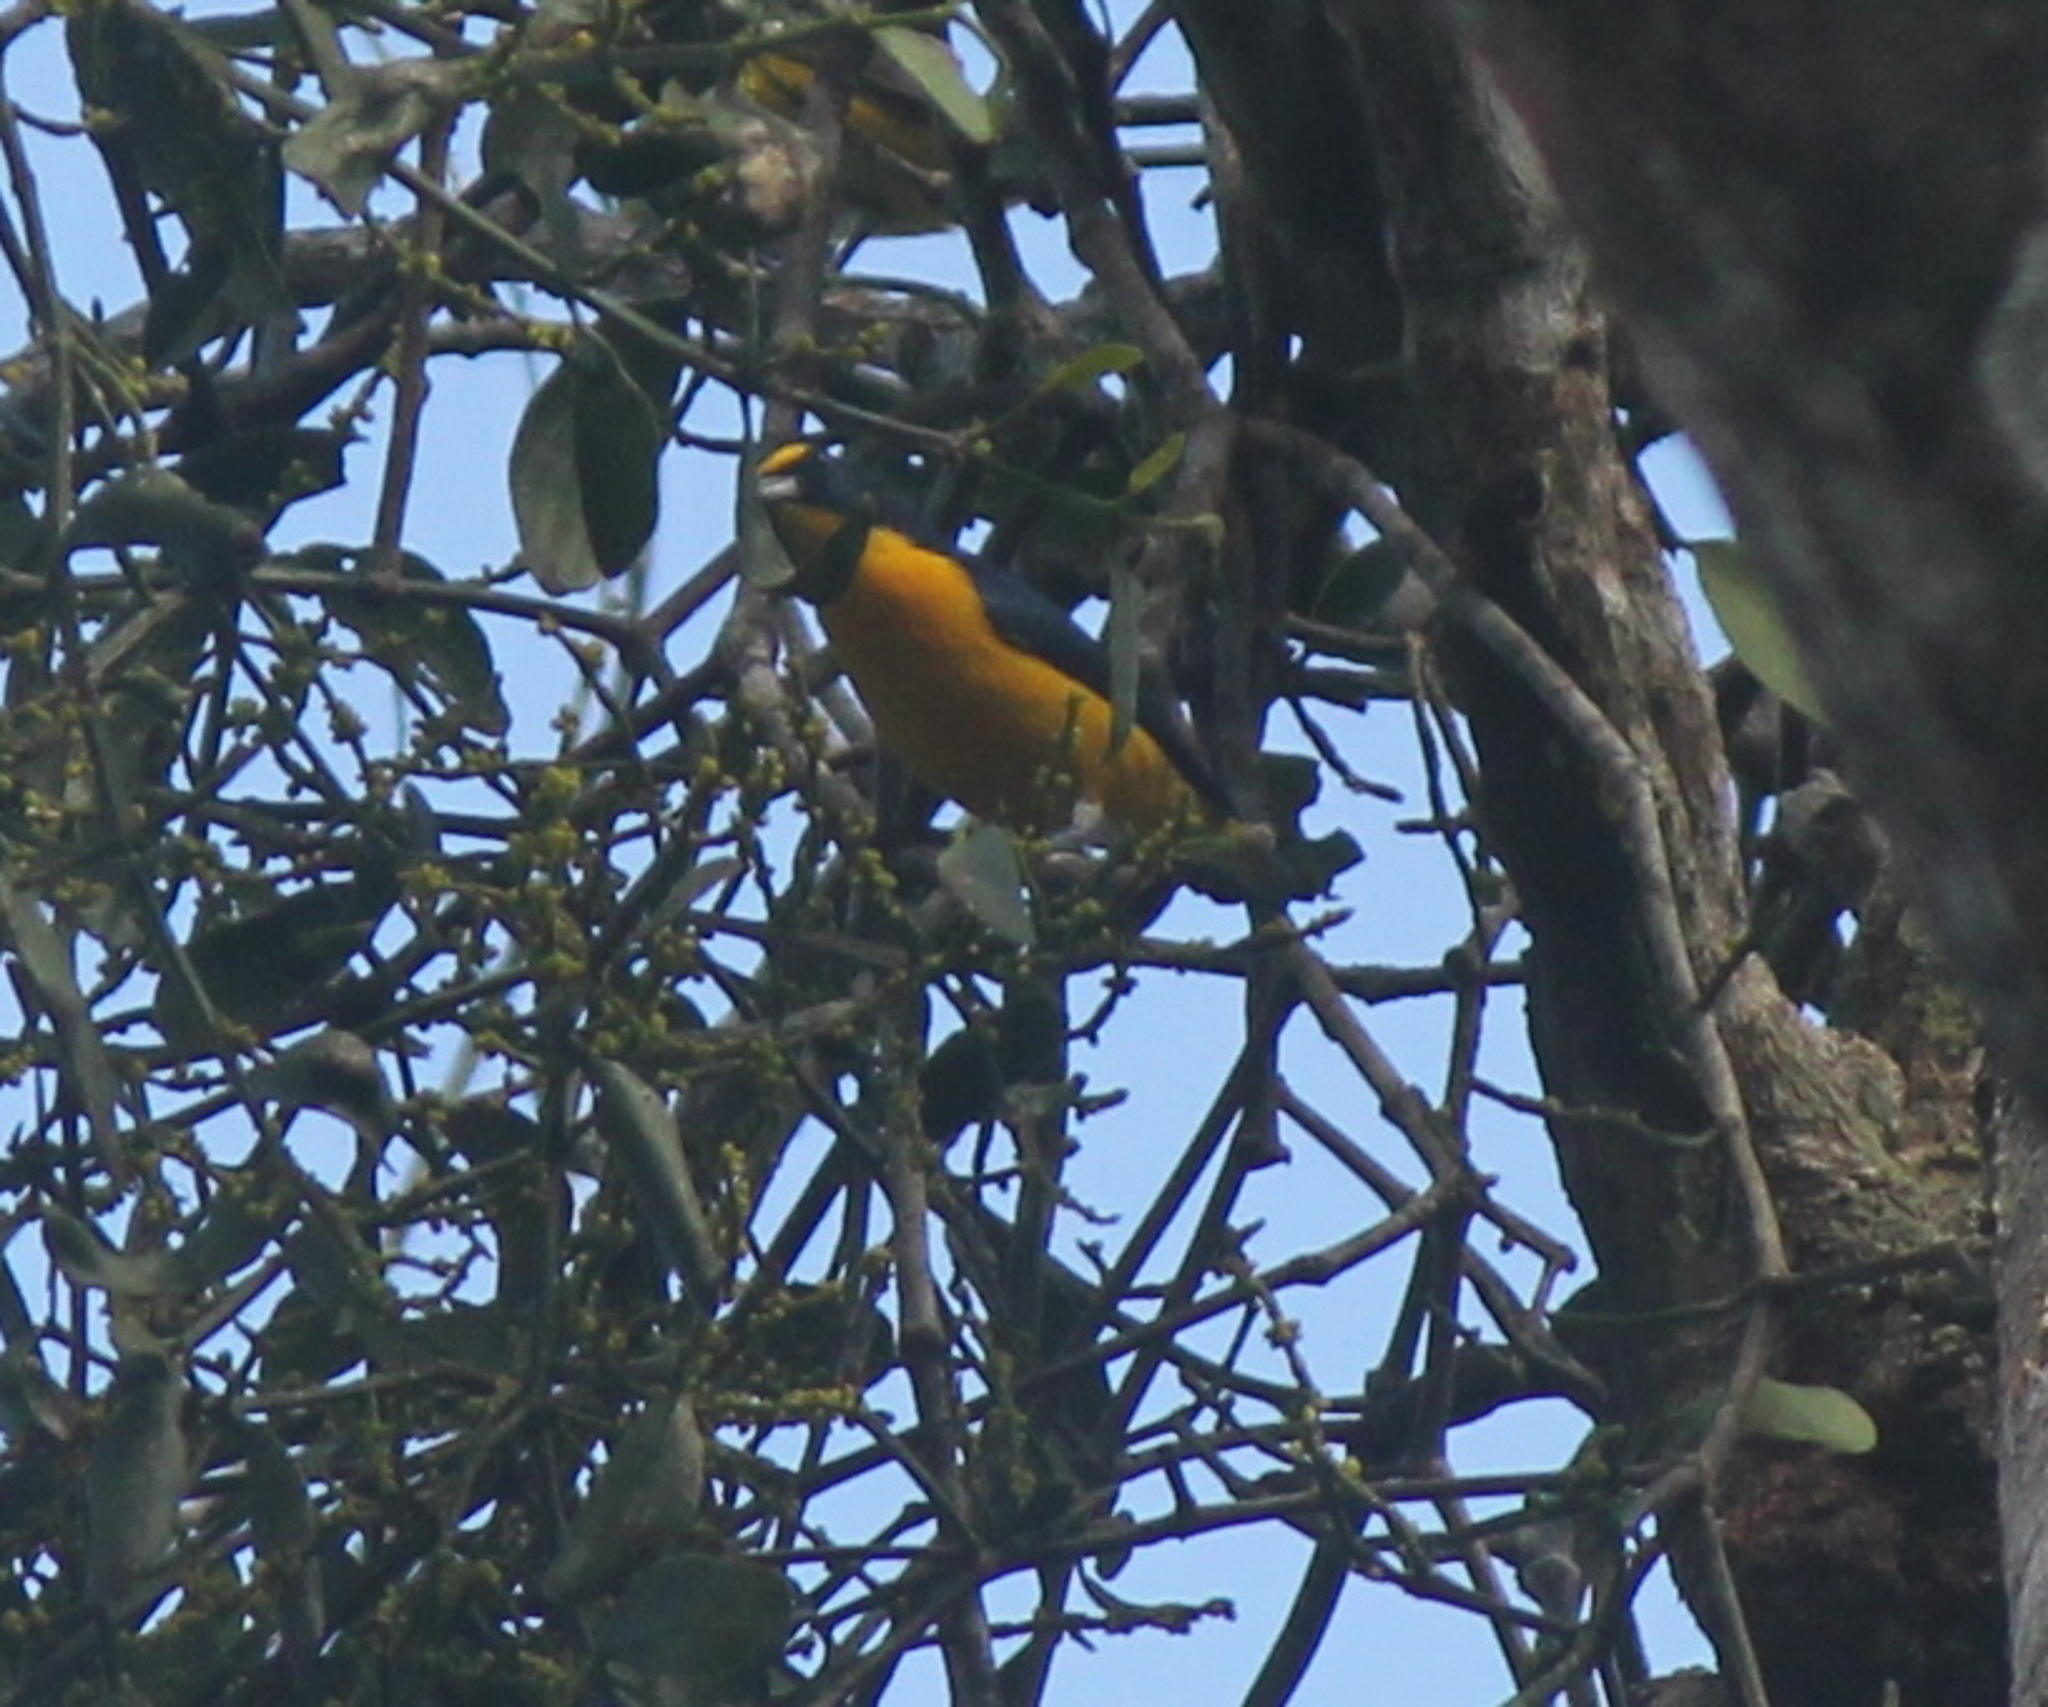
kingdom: Animalia
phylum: Chordata
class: Aves
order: Passeriformes
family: Fringillidae
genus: Euphonia
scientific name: Euphonia hirundinacea
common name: Yellow-throated euphonia
